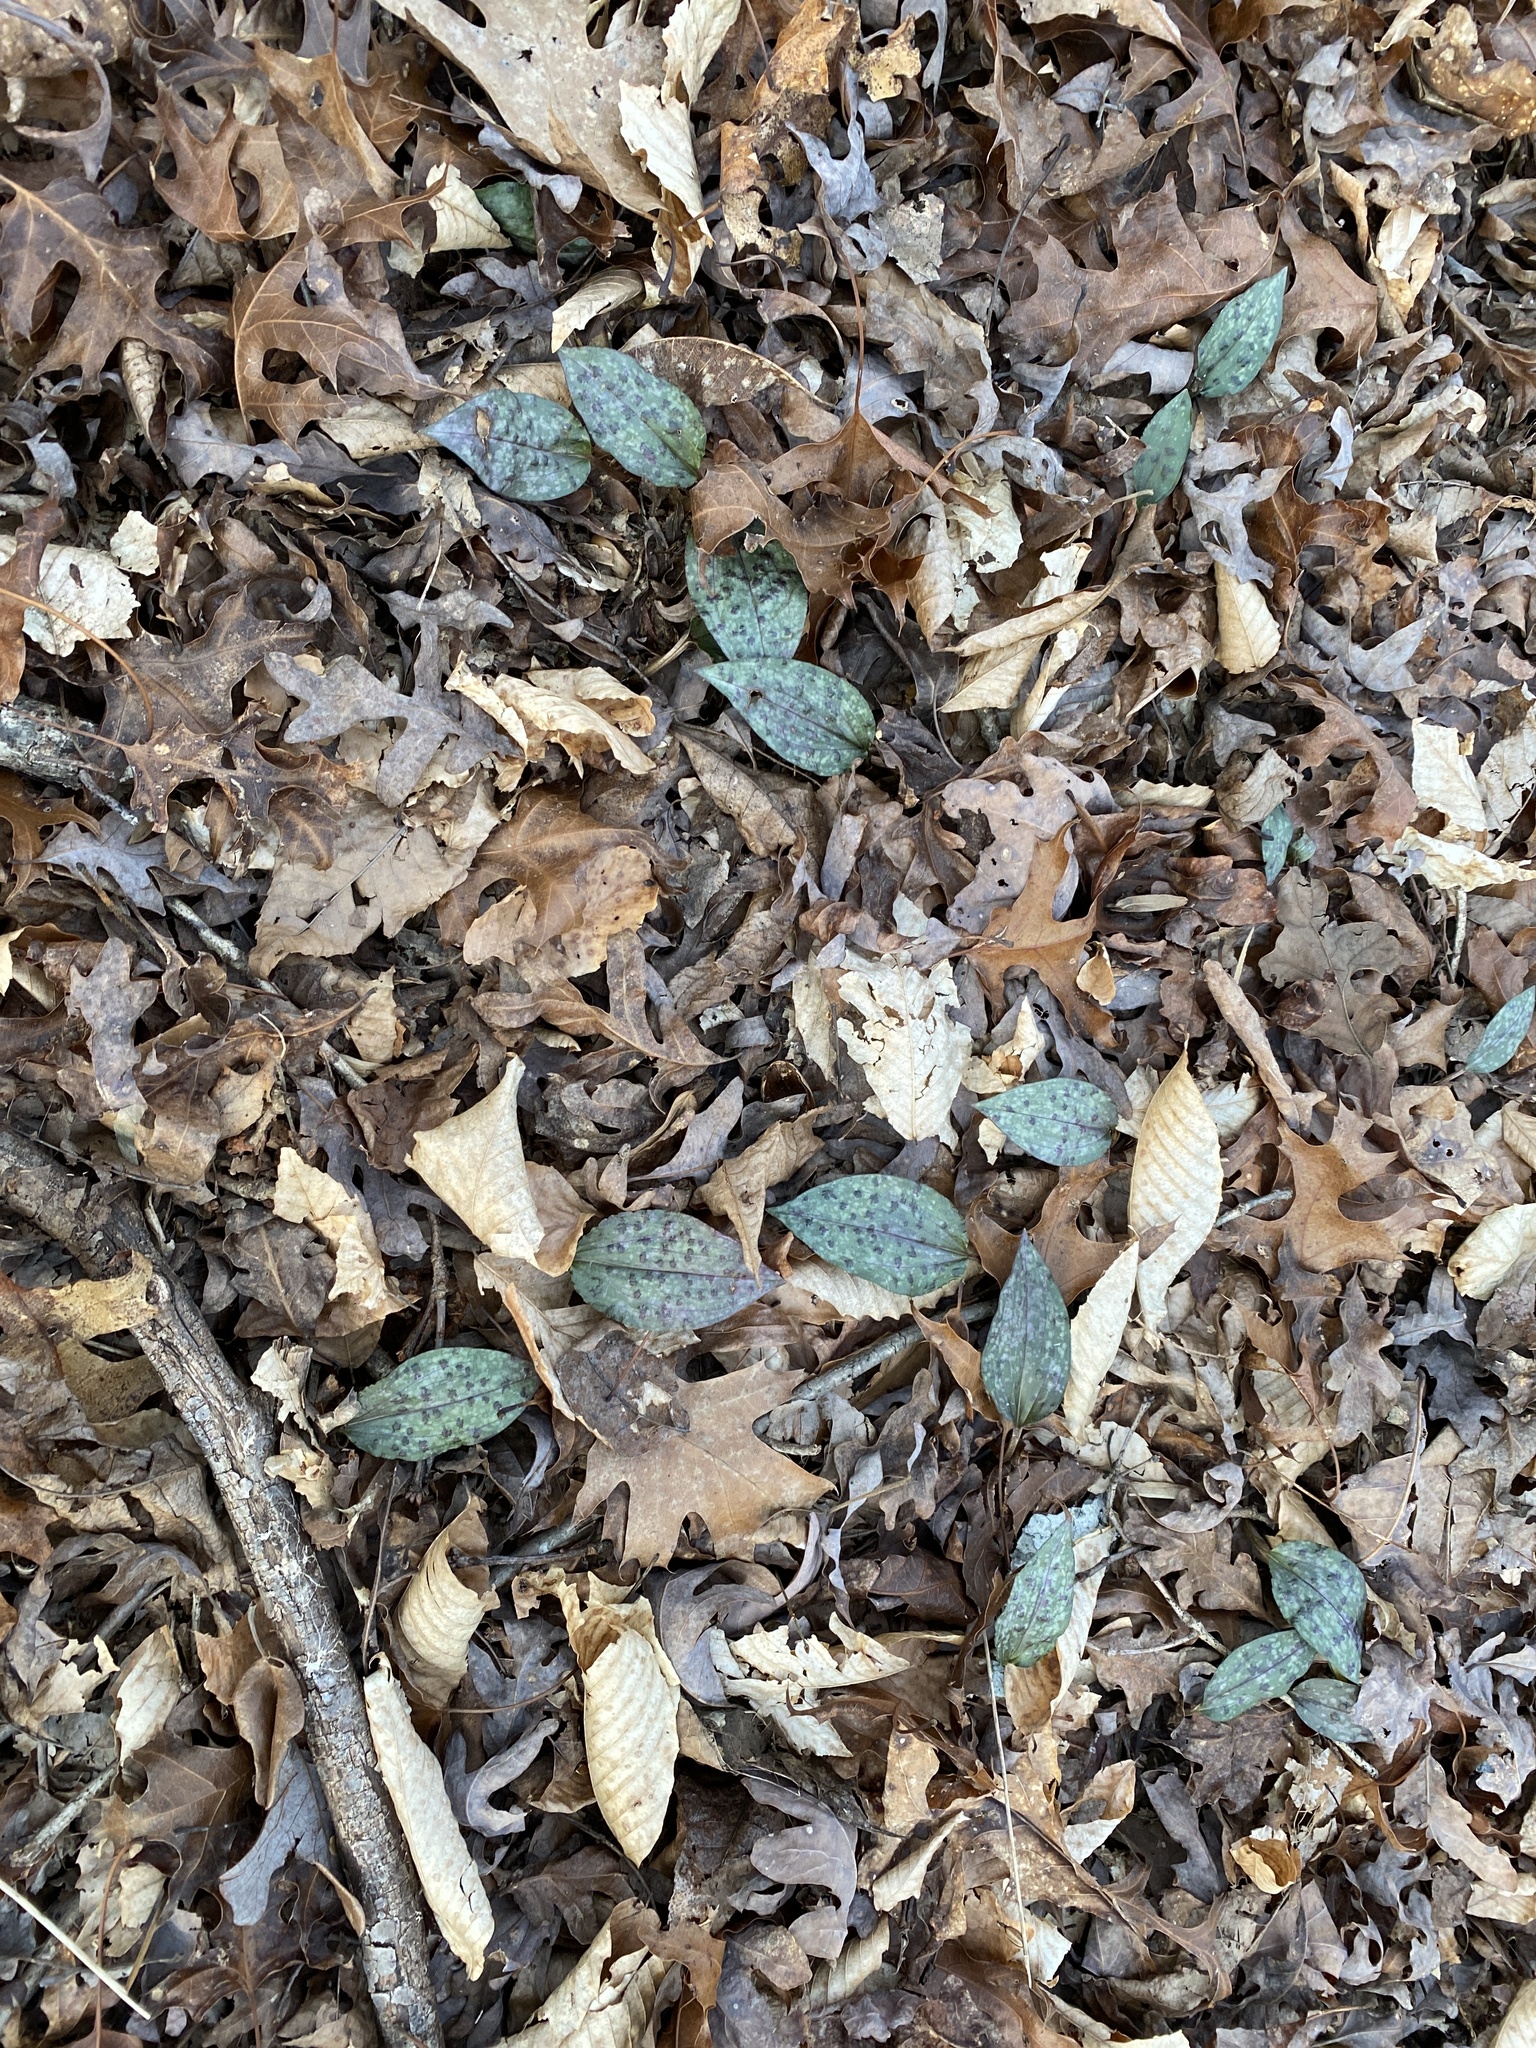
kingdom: Plantae
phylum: Tracheophyta
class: Liliopsida
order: Asparagales
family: Orchidaceae
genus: Tipularia
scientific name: Tipularia discolor
